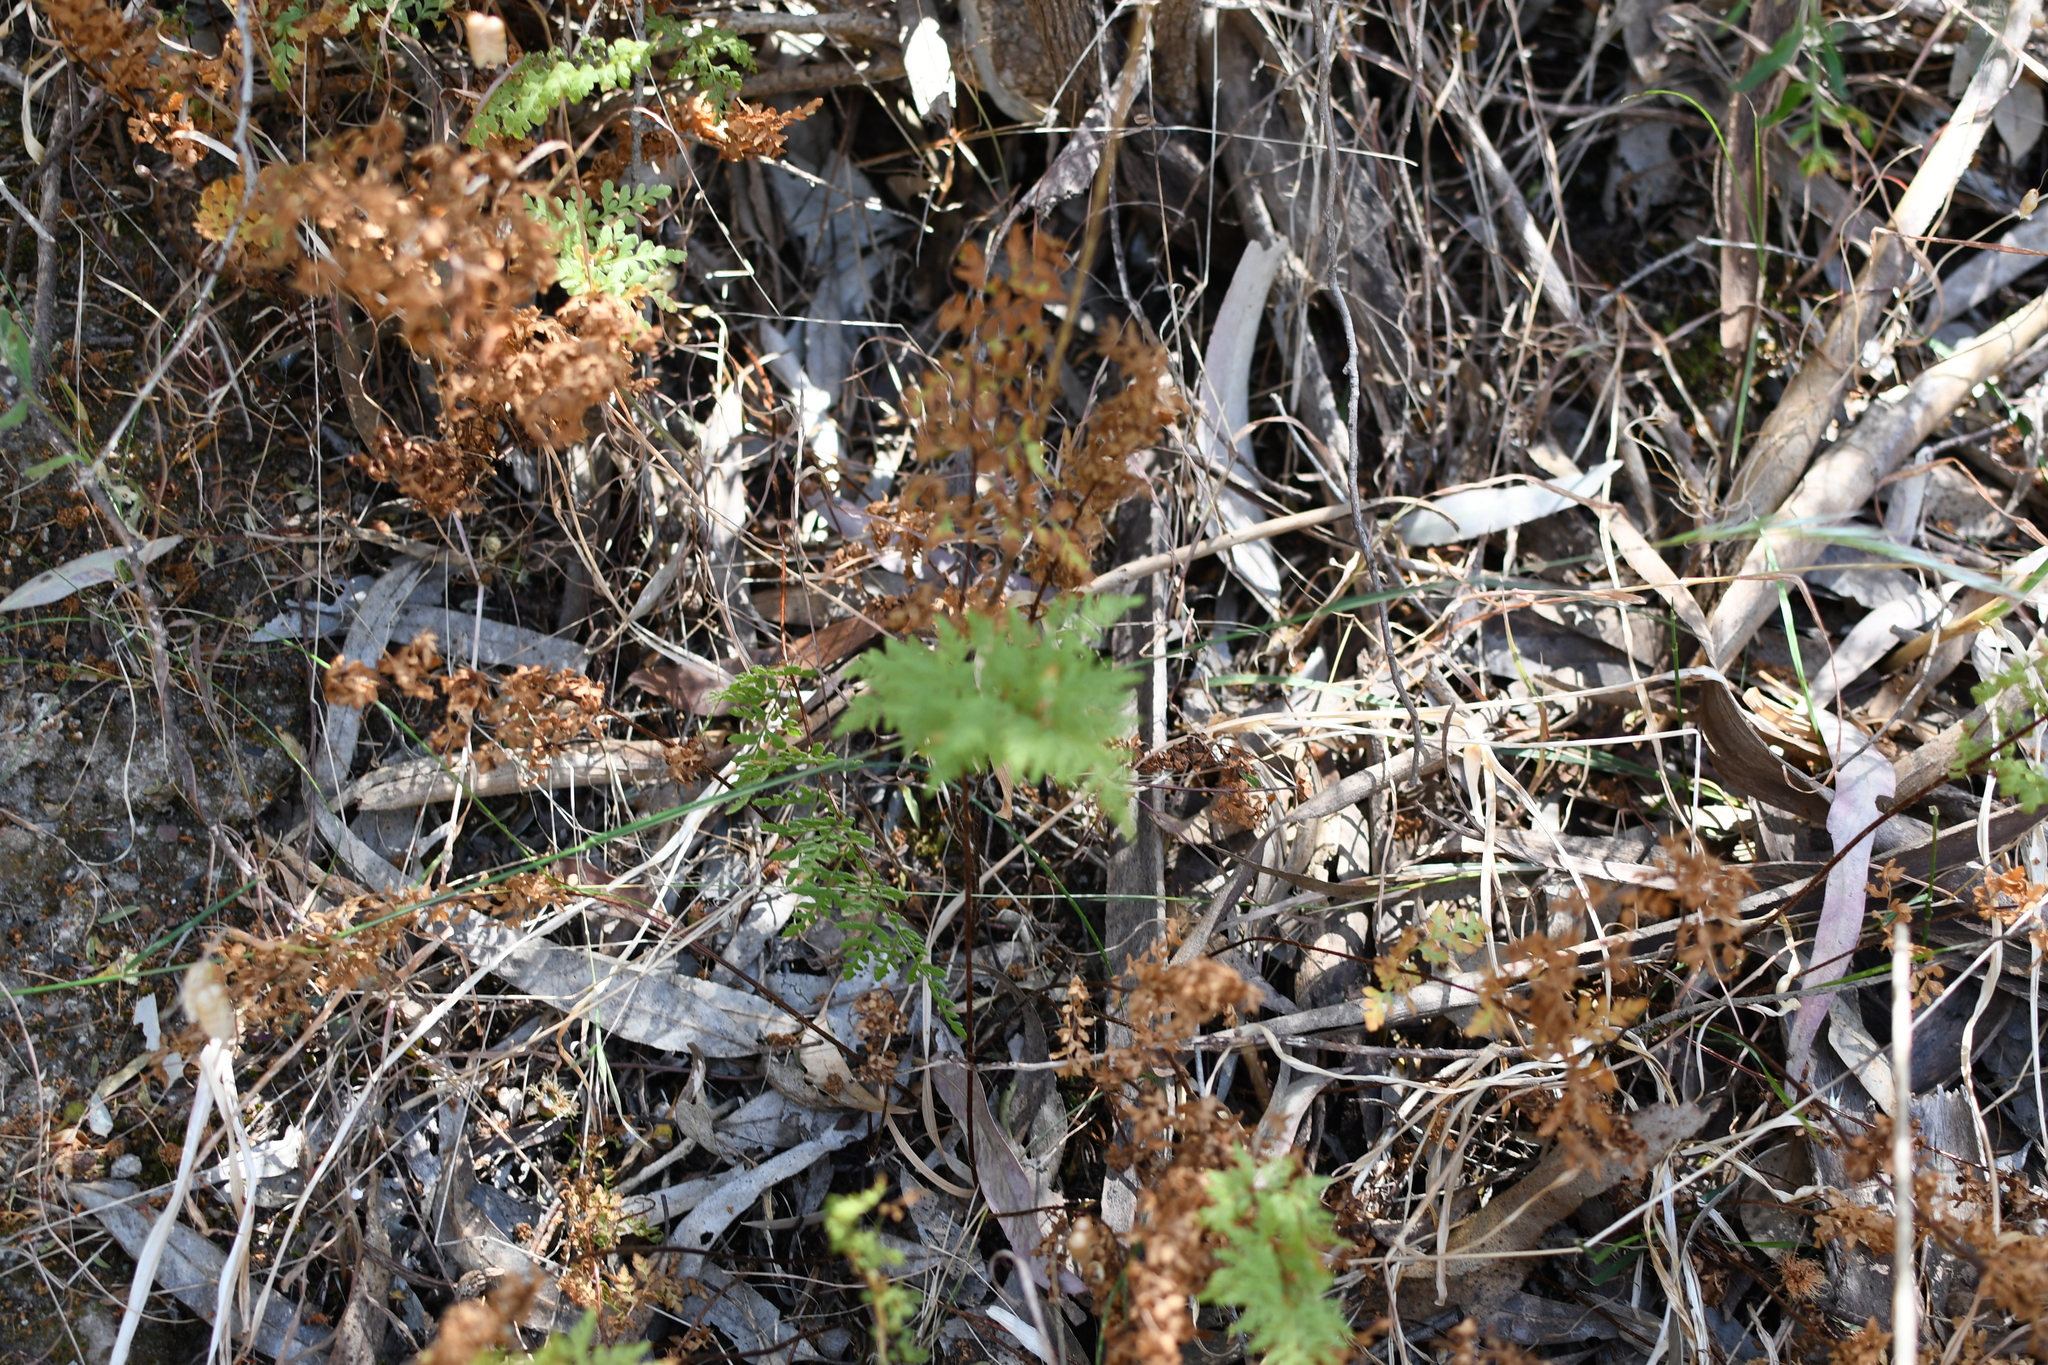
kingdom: Plantae
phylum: Tracheophyta
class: Polypodiopsida
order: Polypodiales
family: Pteridaceae
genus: Cheilanthes
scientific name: Cheilanthes austrotenuifolia
